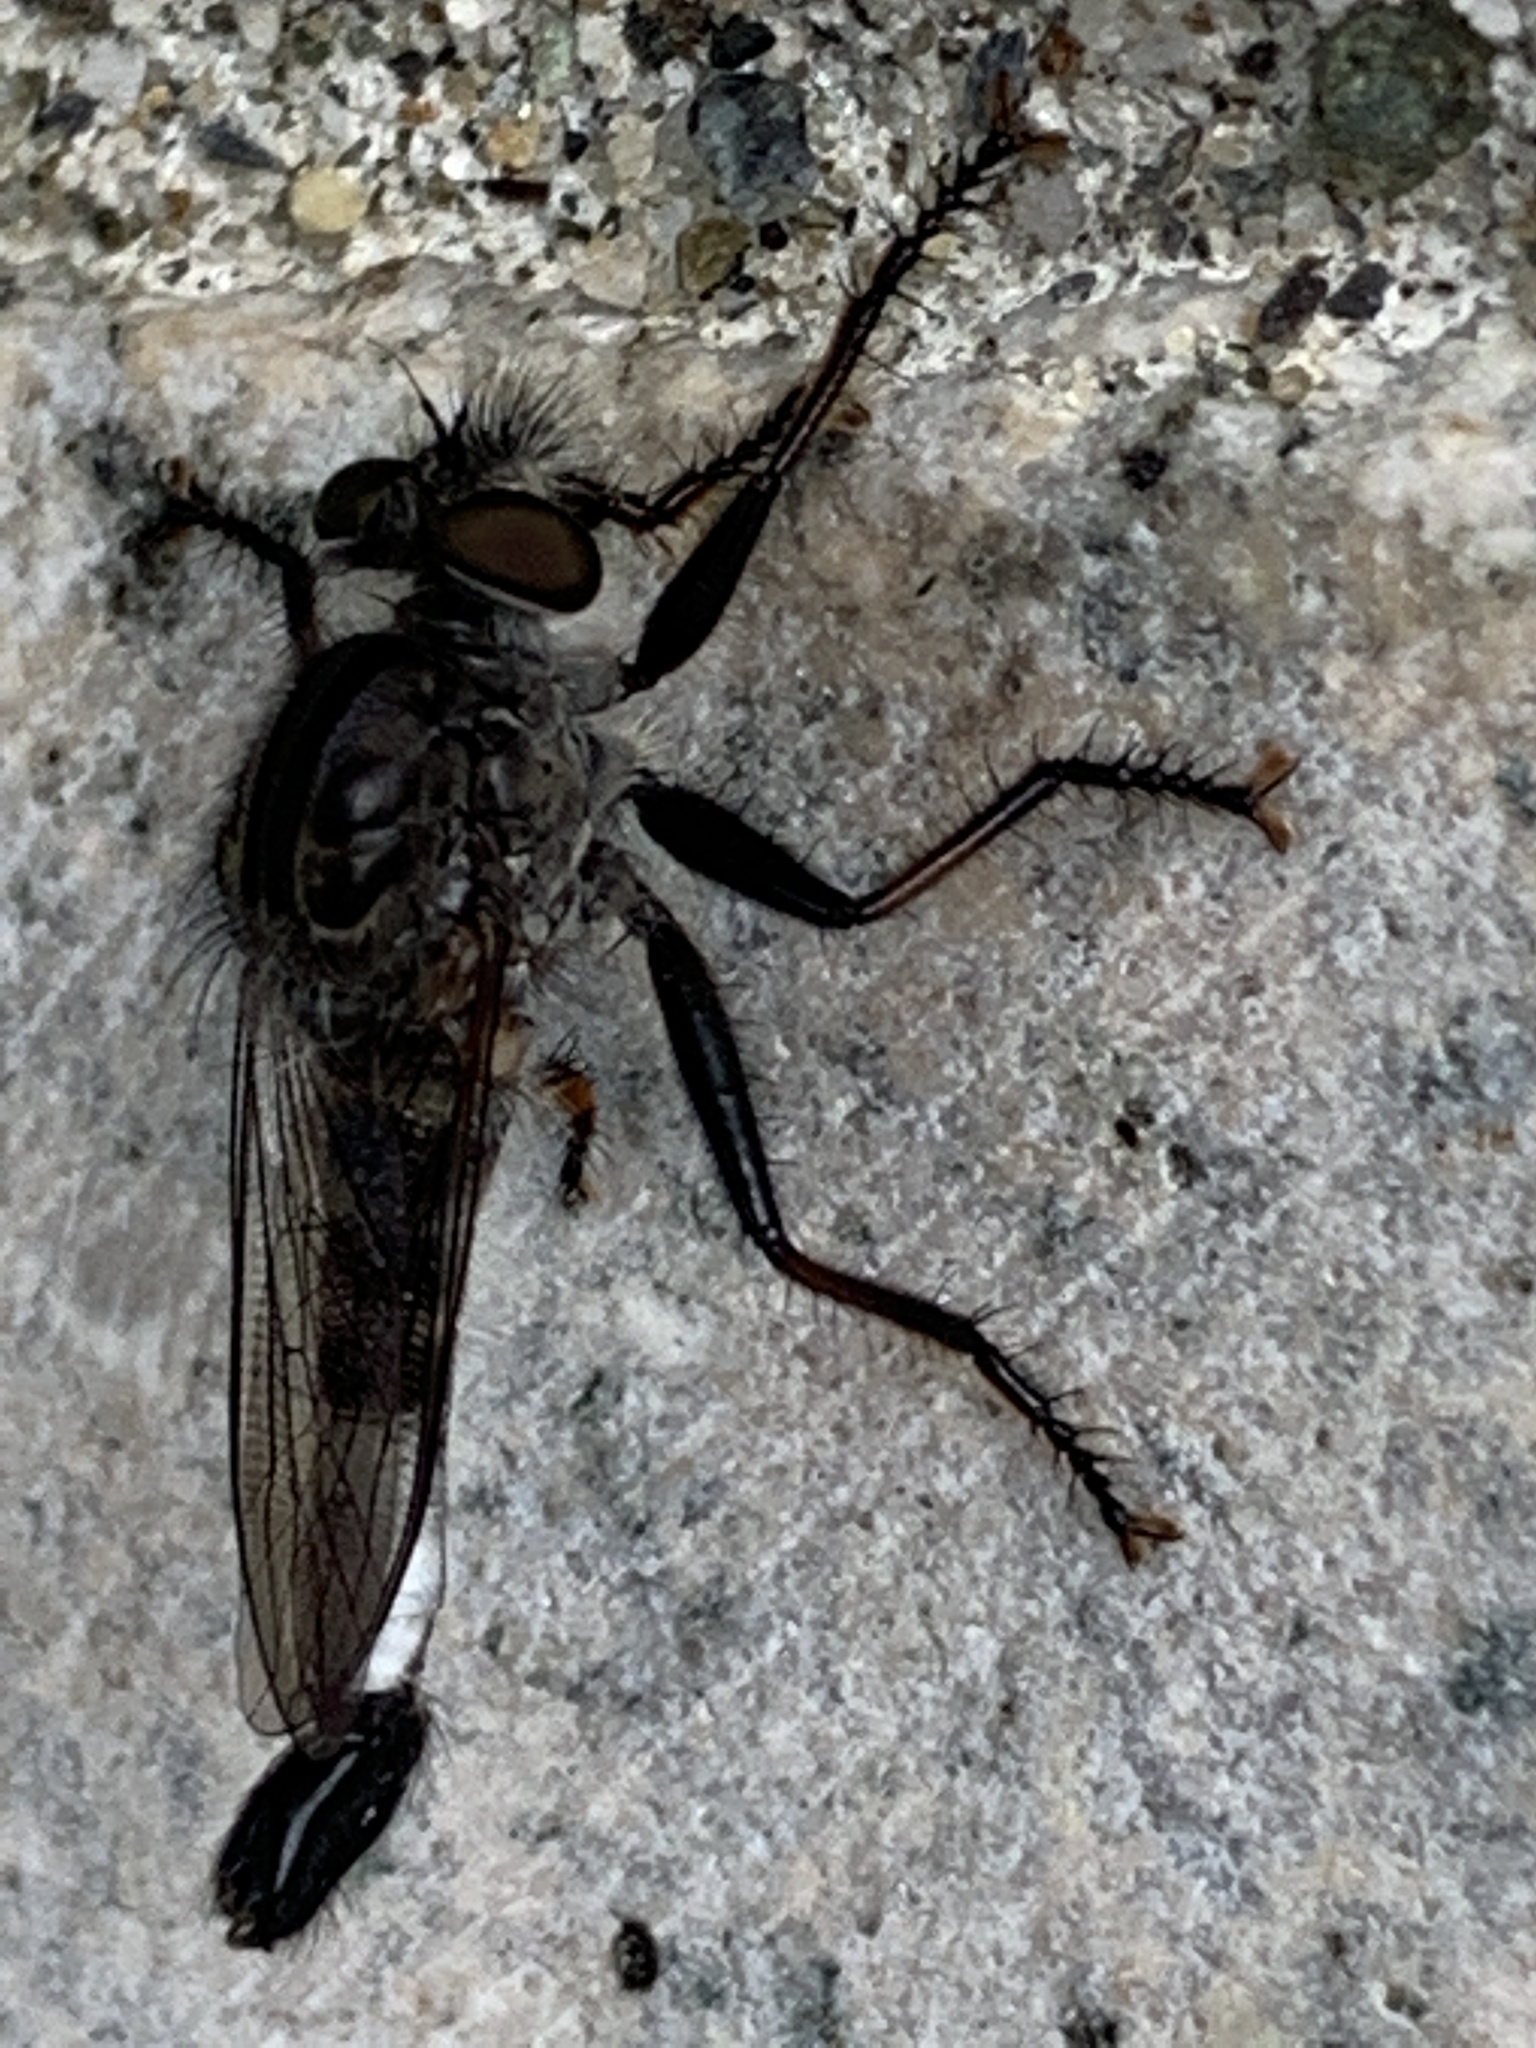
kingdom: Animalia
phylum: Arthropoda
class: Insecta
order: Diptera
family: Asilidae
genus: Efferia
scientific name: Efferia aestuans
